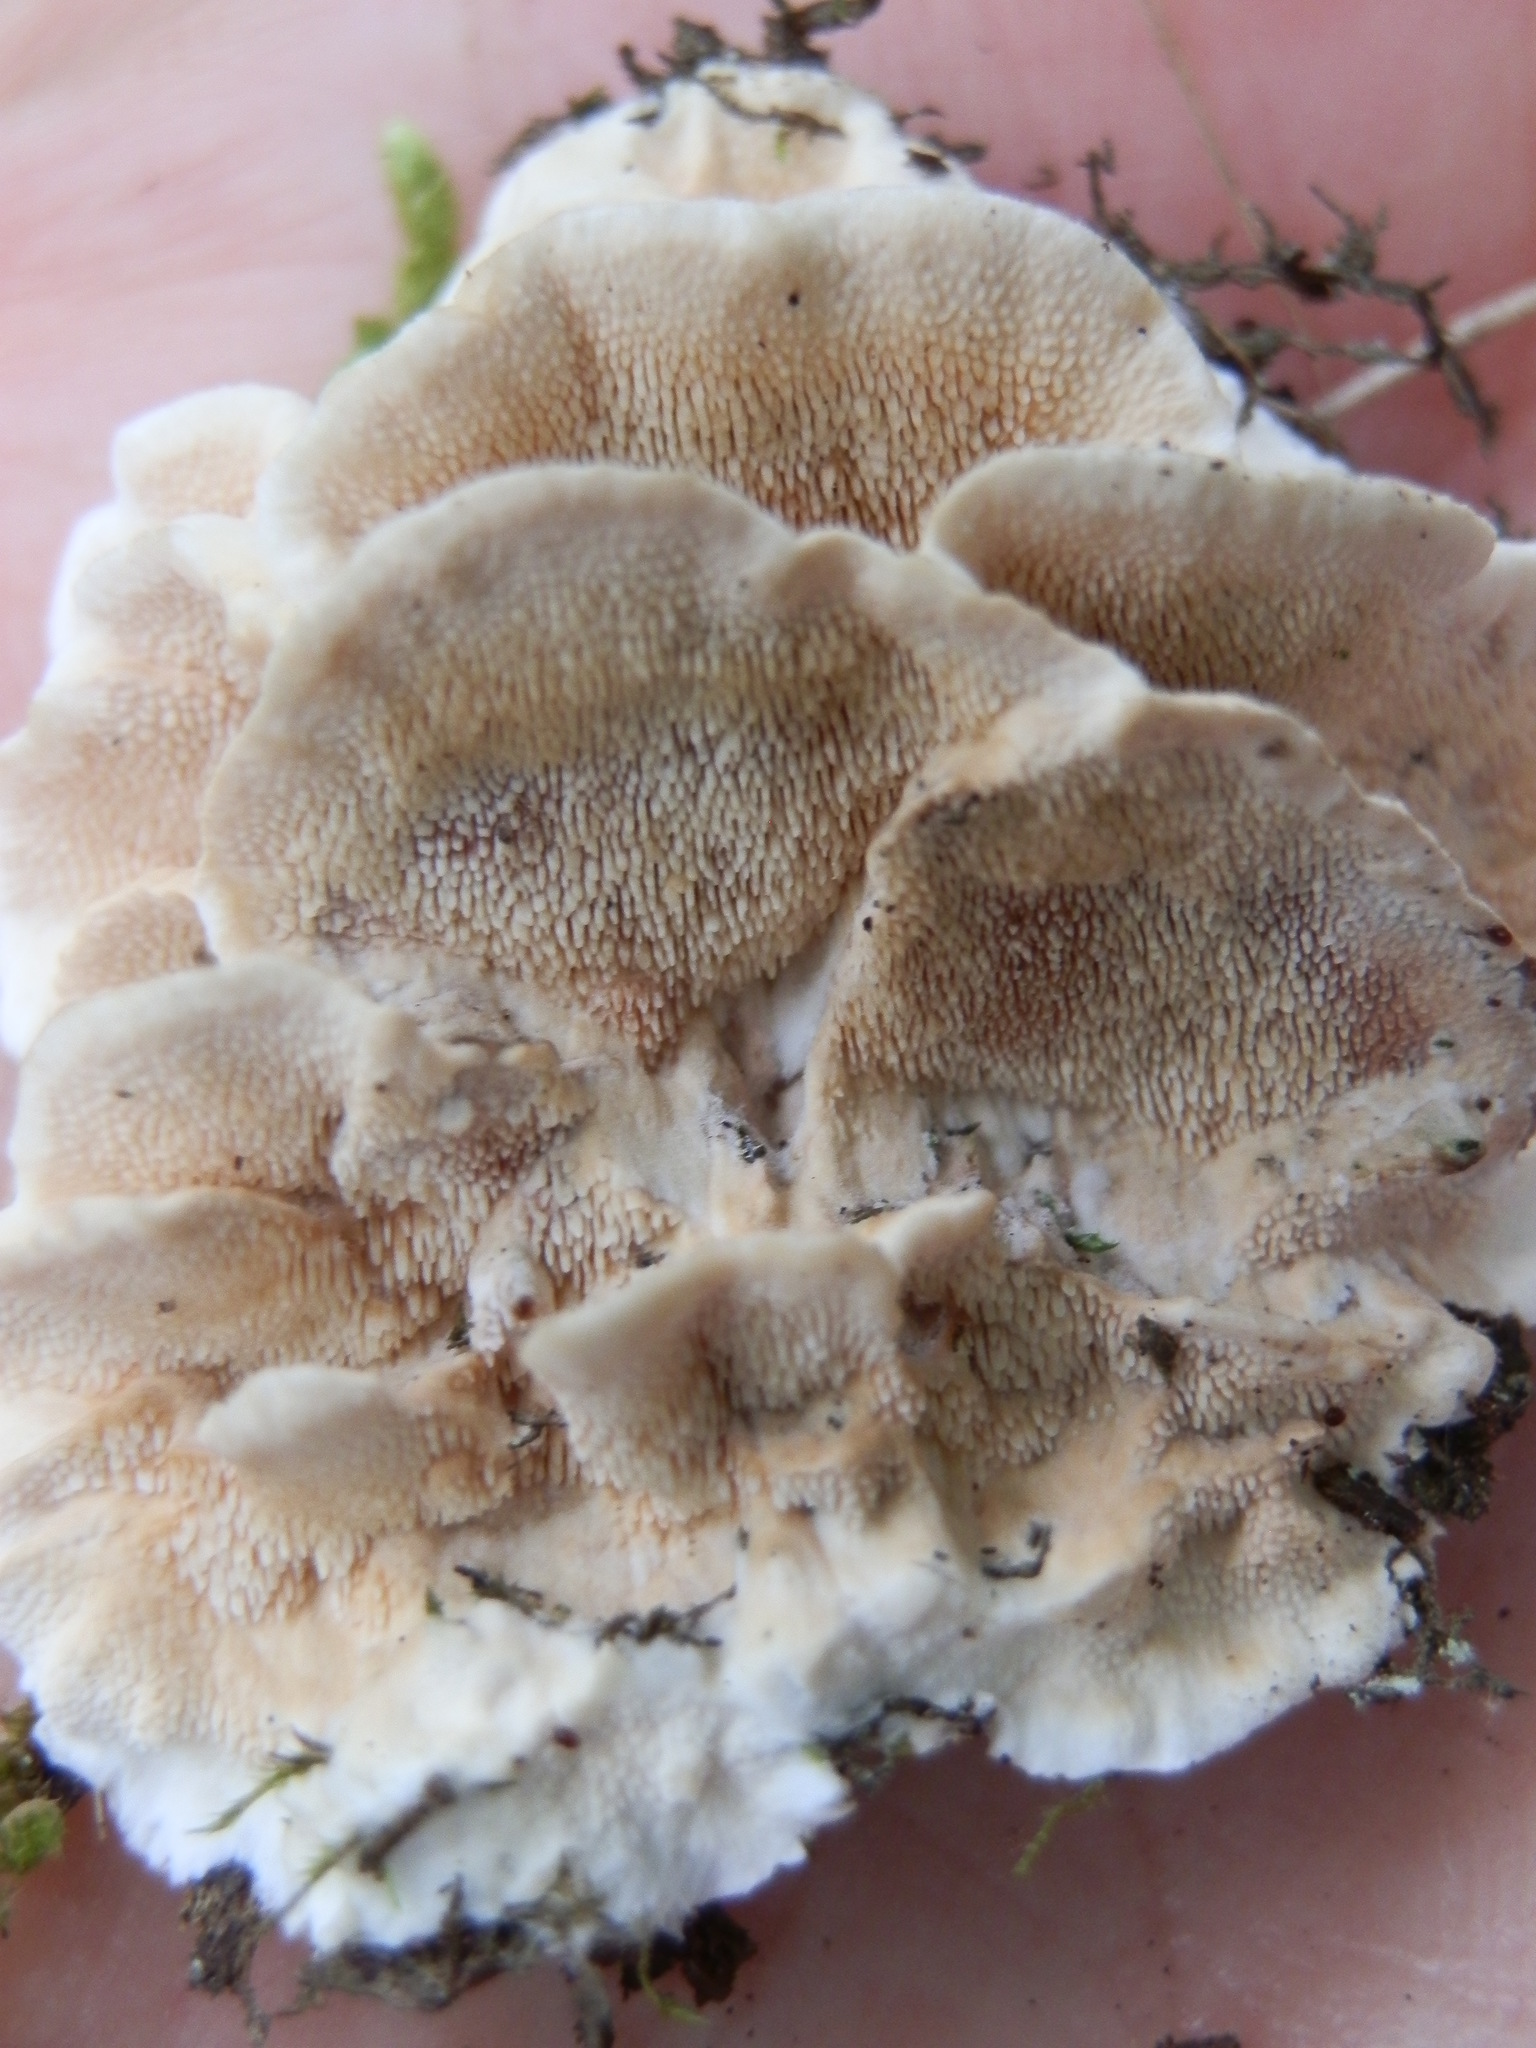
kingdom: Fungi
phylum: Basidiomycota
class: Agaricomycetes
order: Polyporales
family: Steccherinaceae
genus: Steccherinum
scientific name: Steccherinum ochraceum
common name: Ochre spreading tooth
